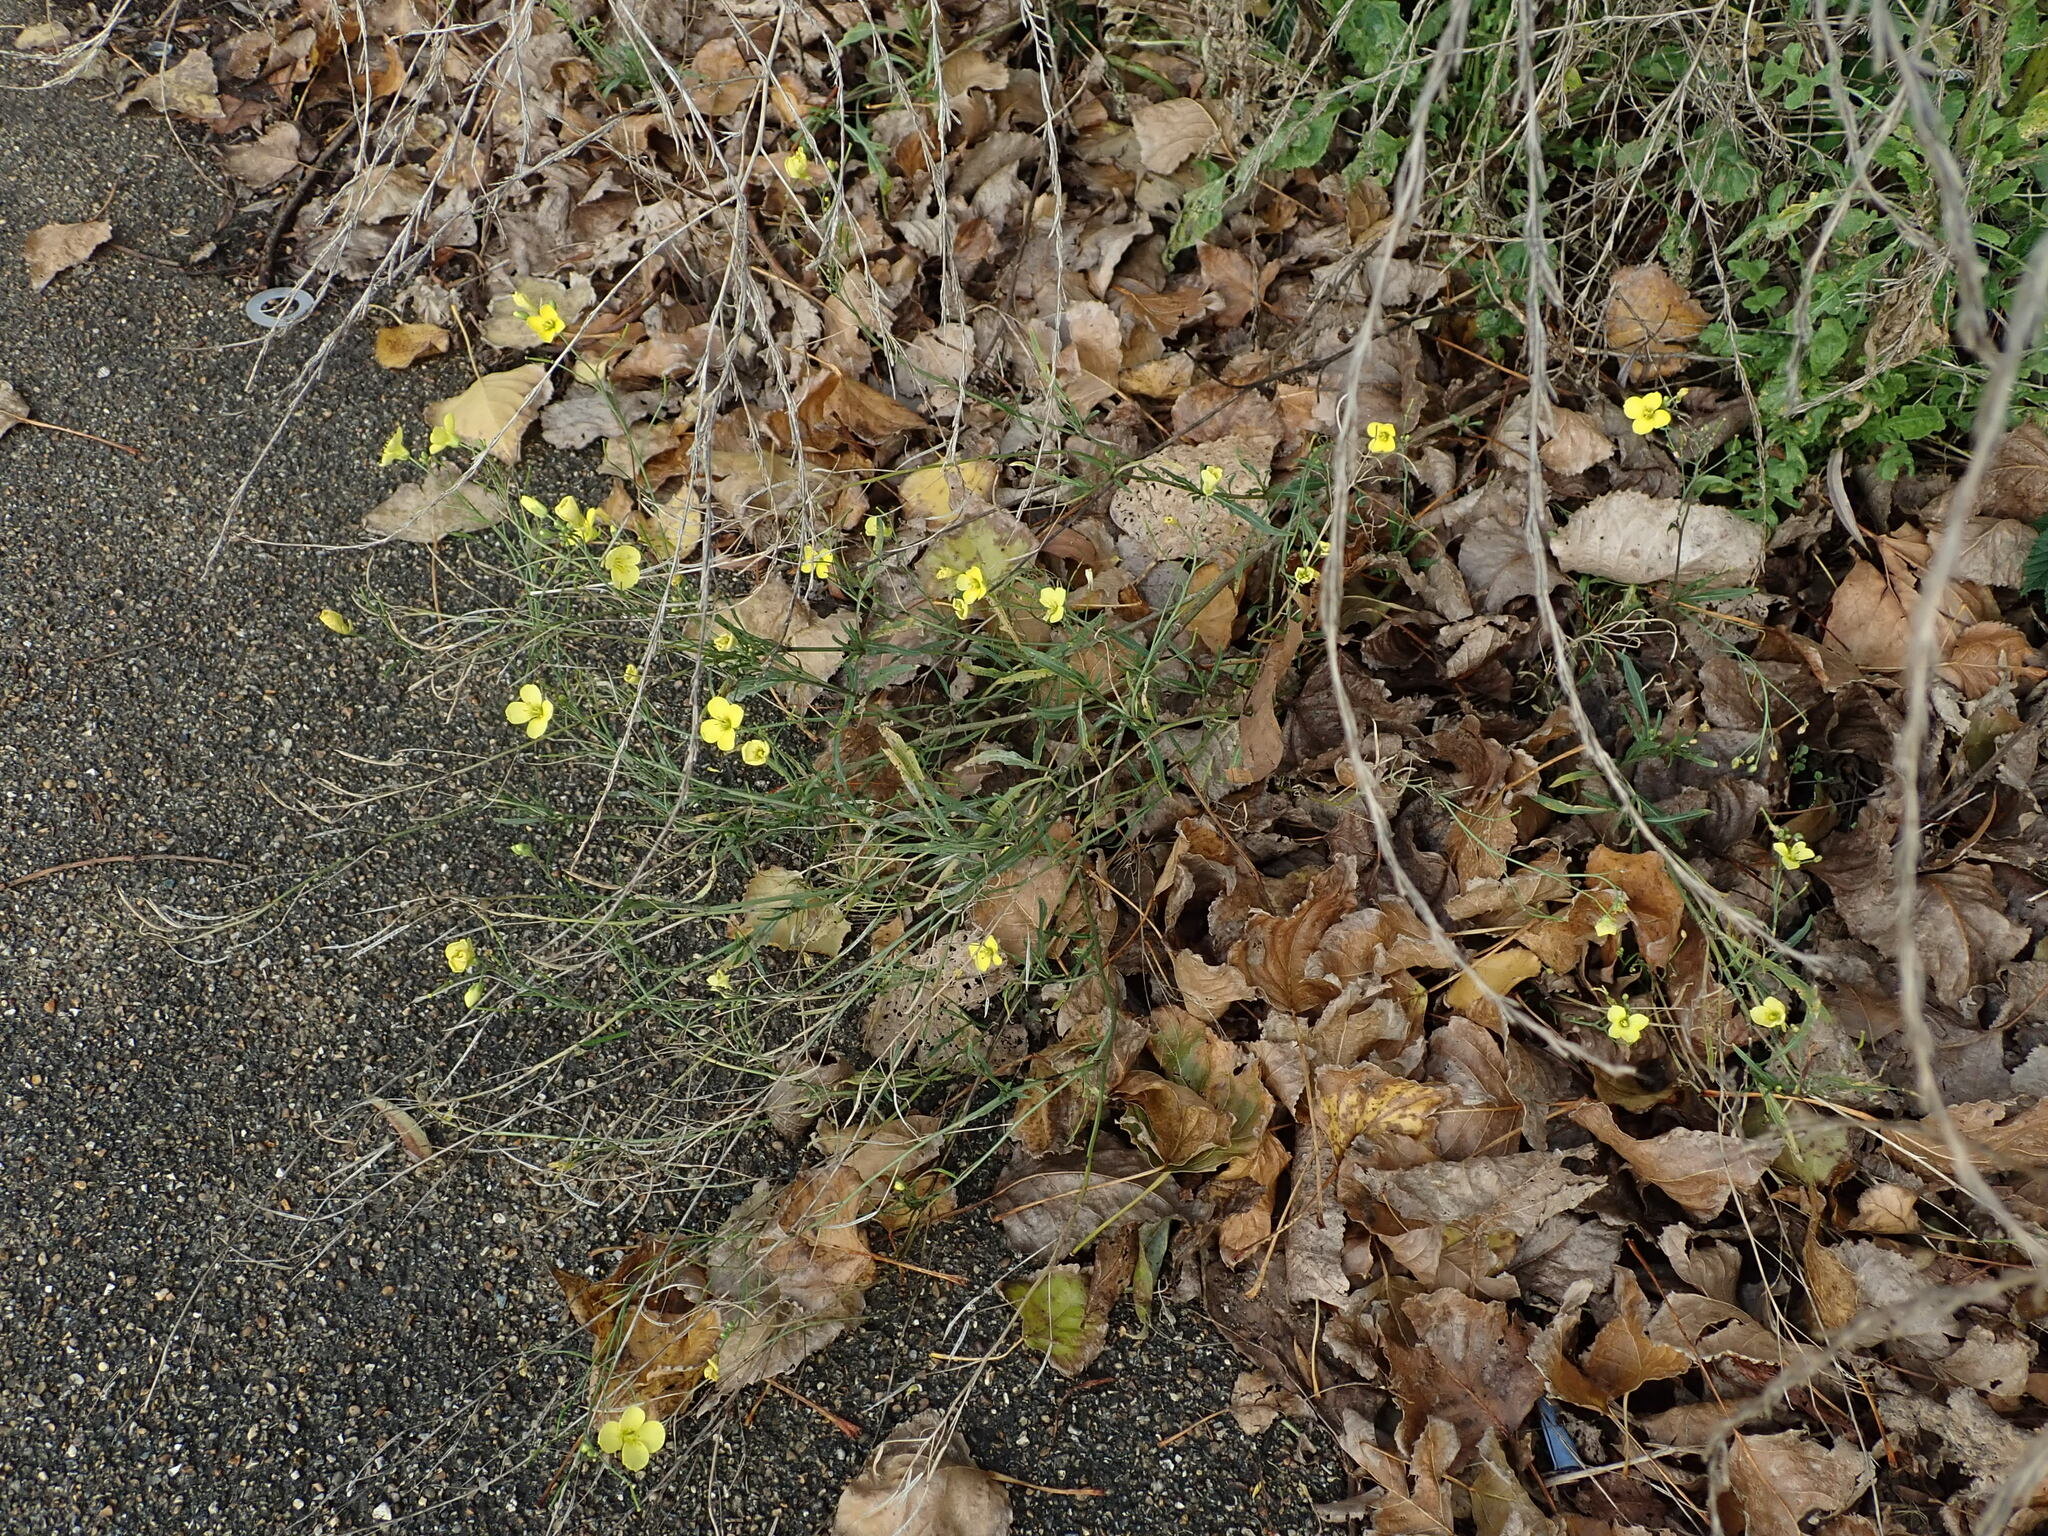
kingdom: Plantae
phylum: Tracheophyta
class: Magnoliopsida
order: Brassicales
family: Brassicaceae
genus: Diplotaxis
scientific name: Diplotaxis tenuifolia
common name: Perennial wall-rocket
